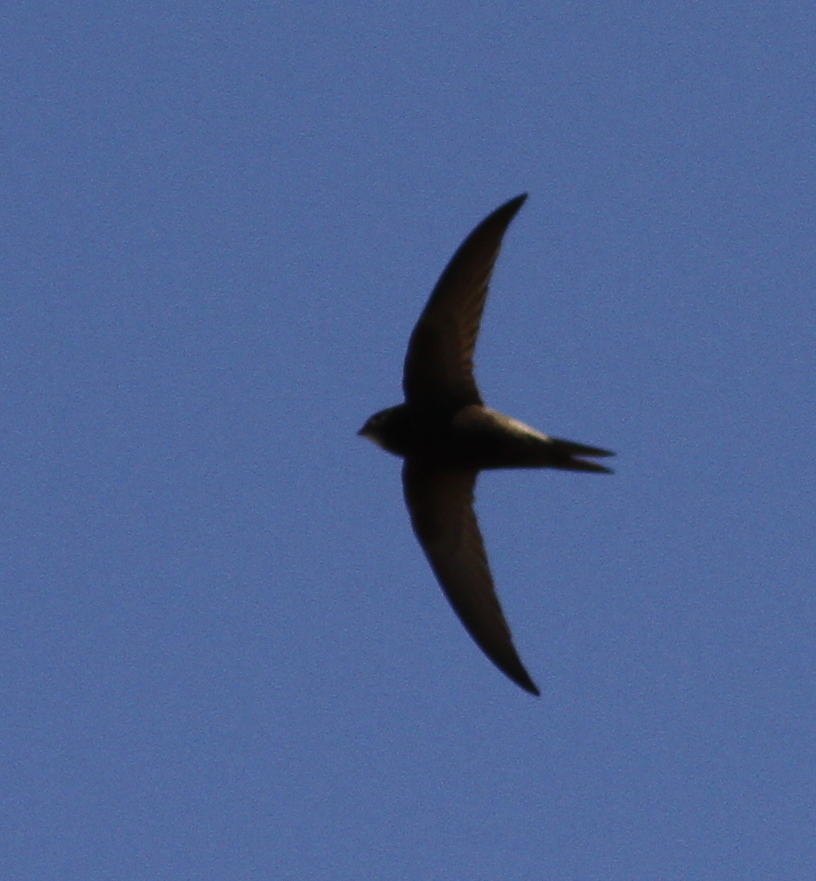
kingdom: Animalia
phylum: Chordata
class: Aves
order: Apodiformes
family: Apodidae
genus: Apus
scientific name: Apus apus
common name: Common swift
